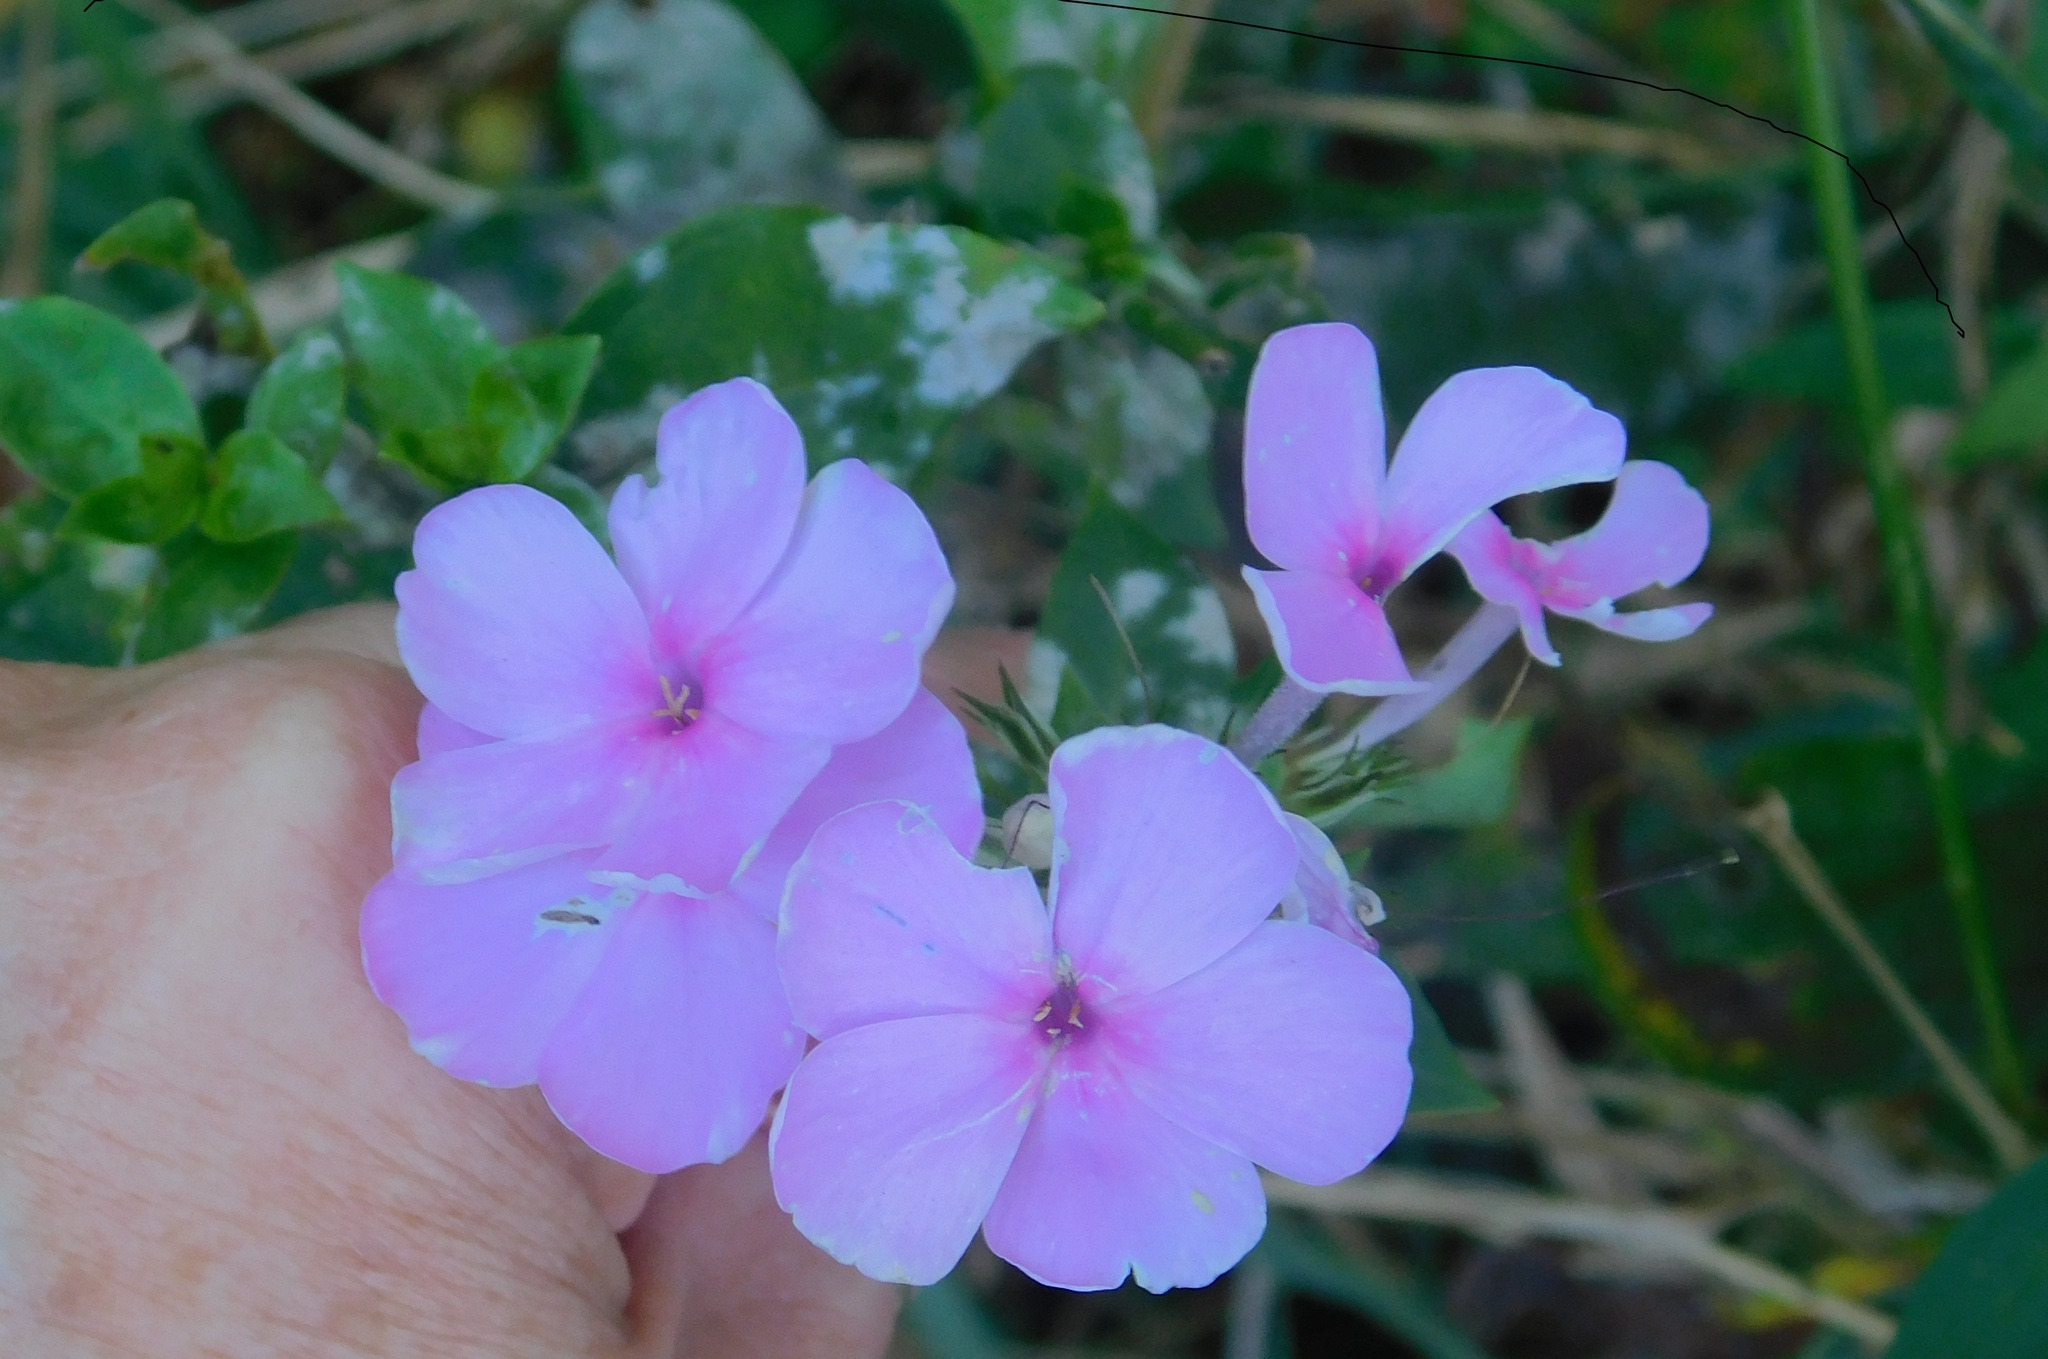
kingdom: Plantae
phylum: Tracheophyta
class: Magnoliopsida
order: Ericales
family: Polemoniaceae
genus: Phlox
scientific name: Phlox paniculata
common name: Fall phlox
